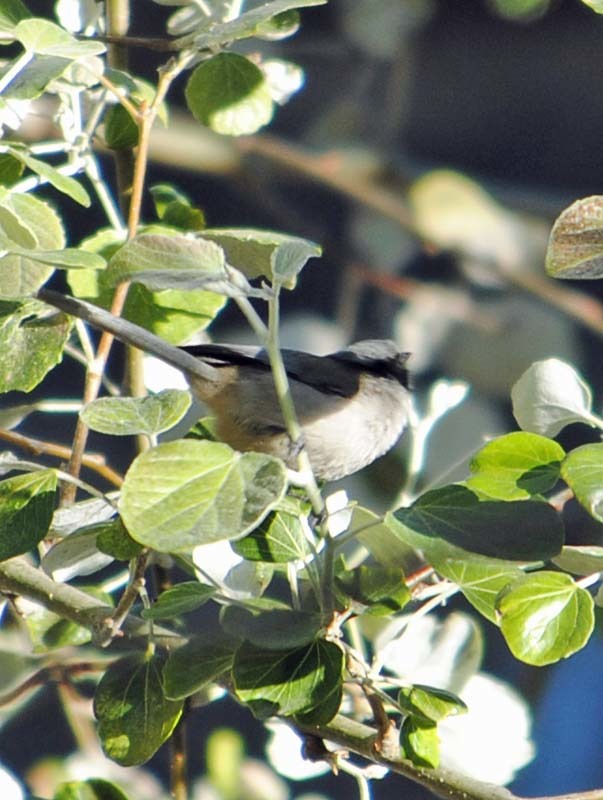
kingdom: Animalia
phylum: Chordata
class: Aves
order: Passeriformes
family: Aegithalidae
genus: Psaltriparus
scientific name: Psaltriparus minimus
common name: American bushtit
